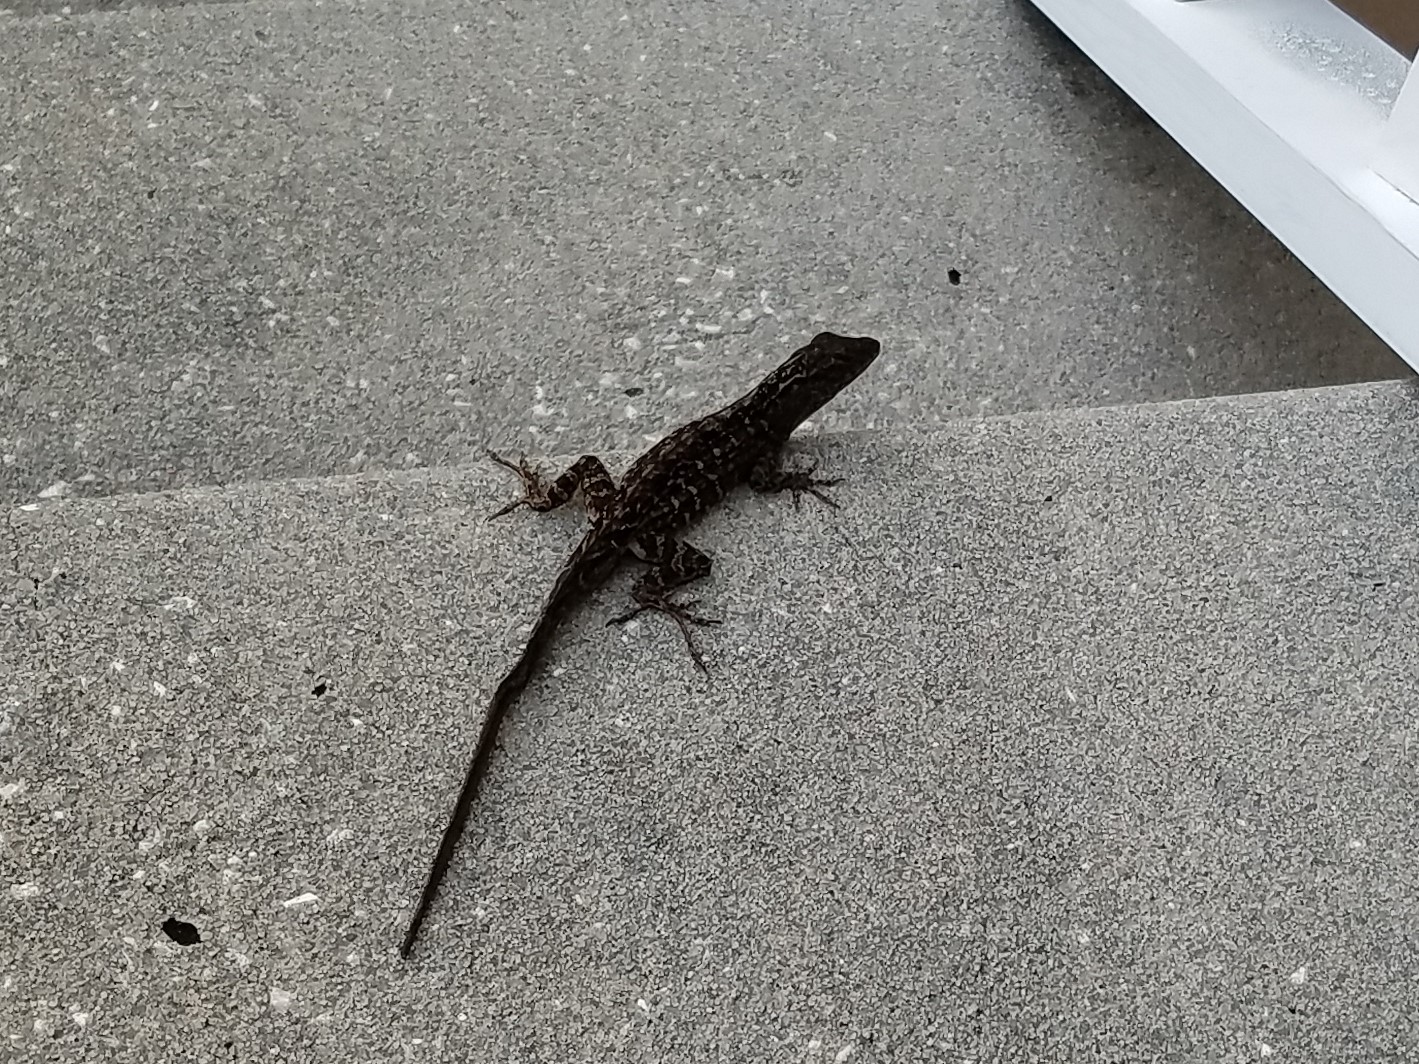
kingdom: Animalia
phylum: Chordata
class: Squamata
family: Dactyloidae
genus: Anolis
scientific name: Anolis sagrei
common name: Brown anole
